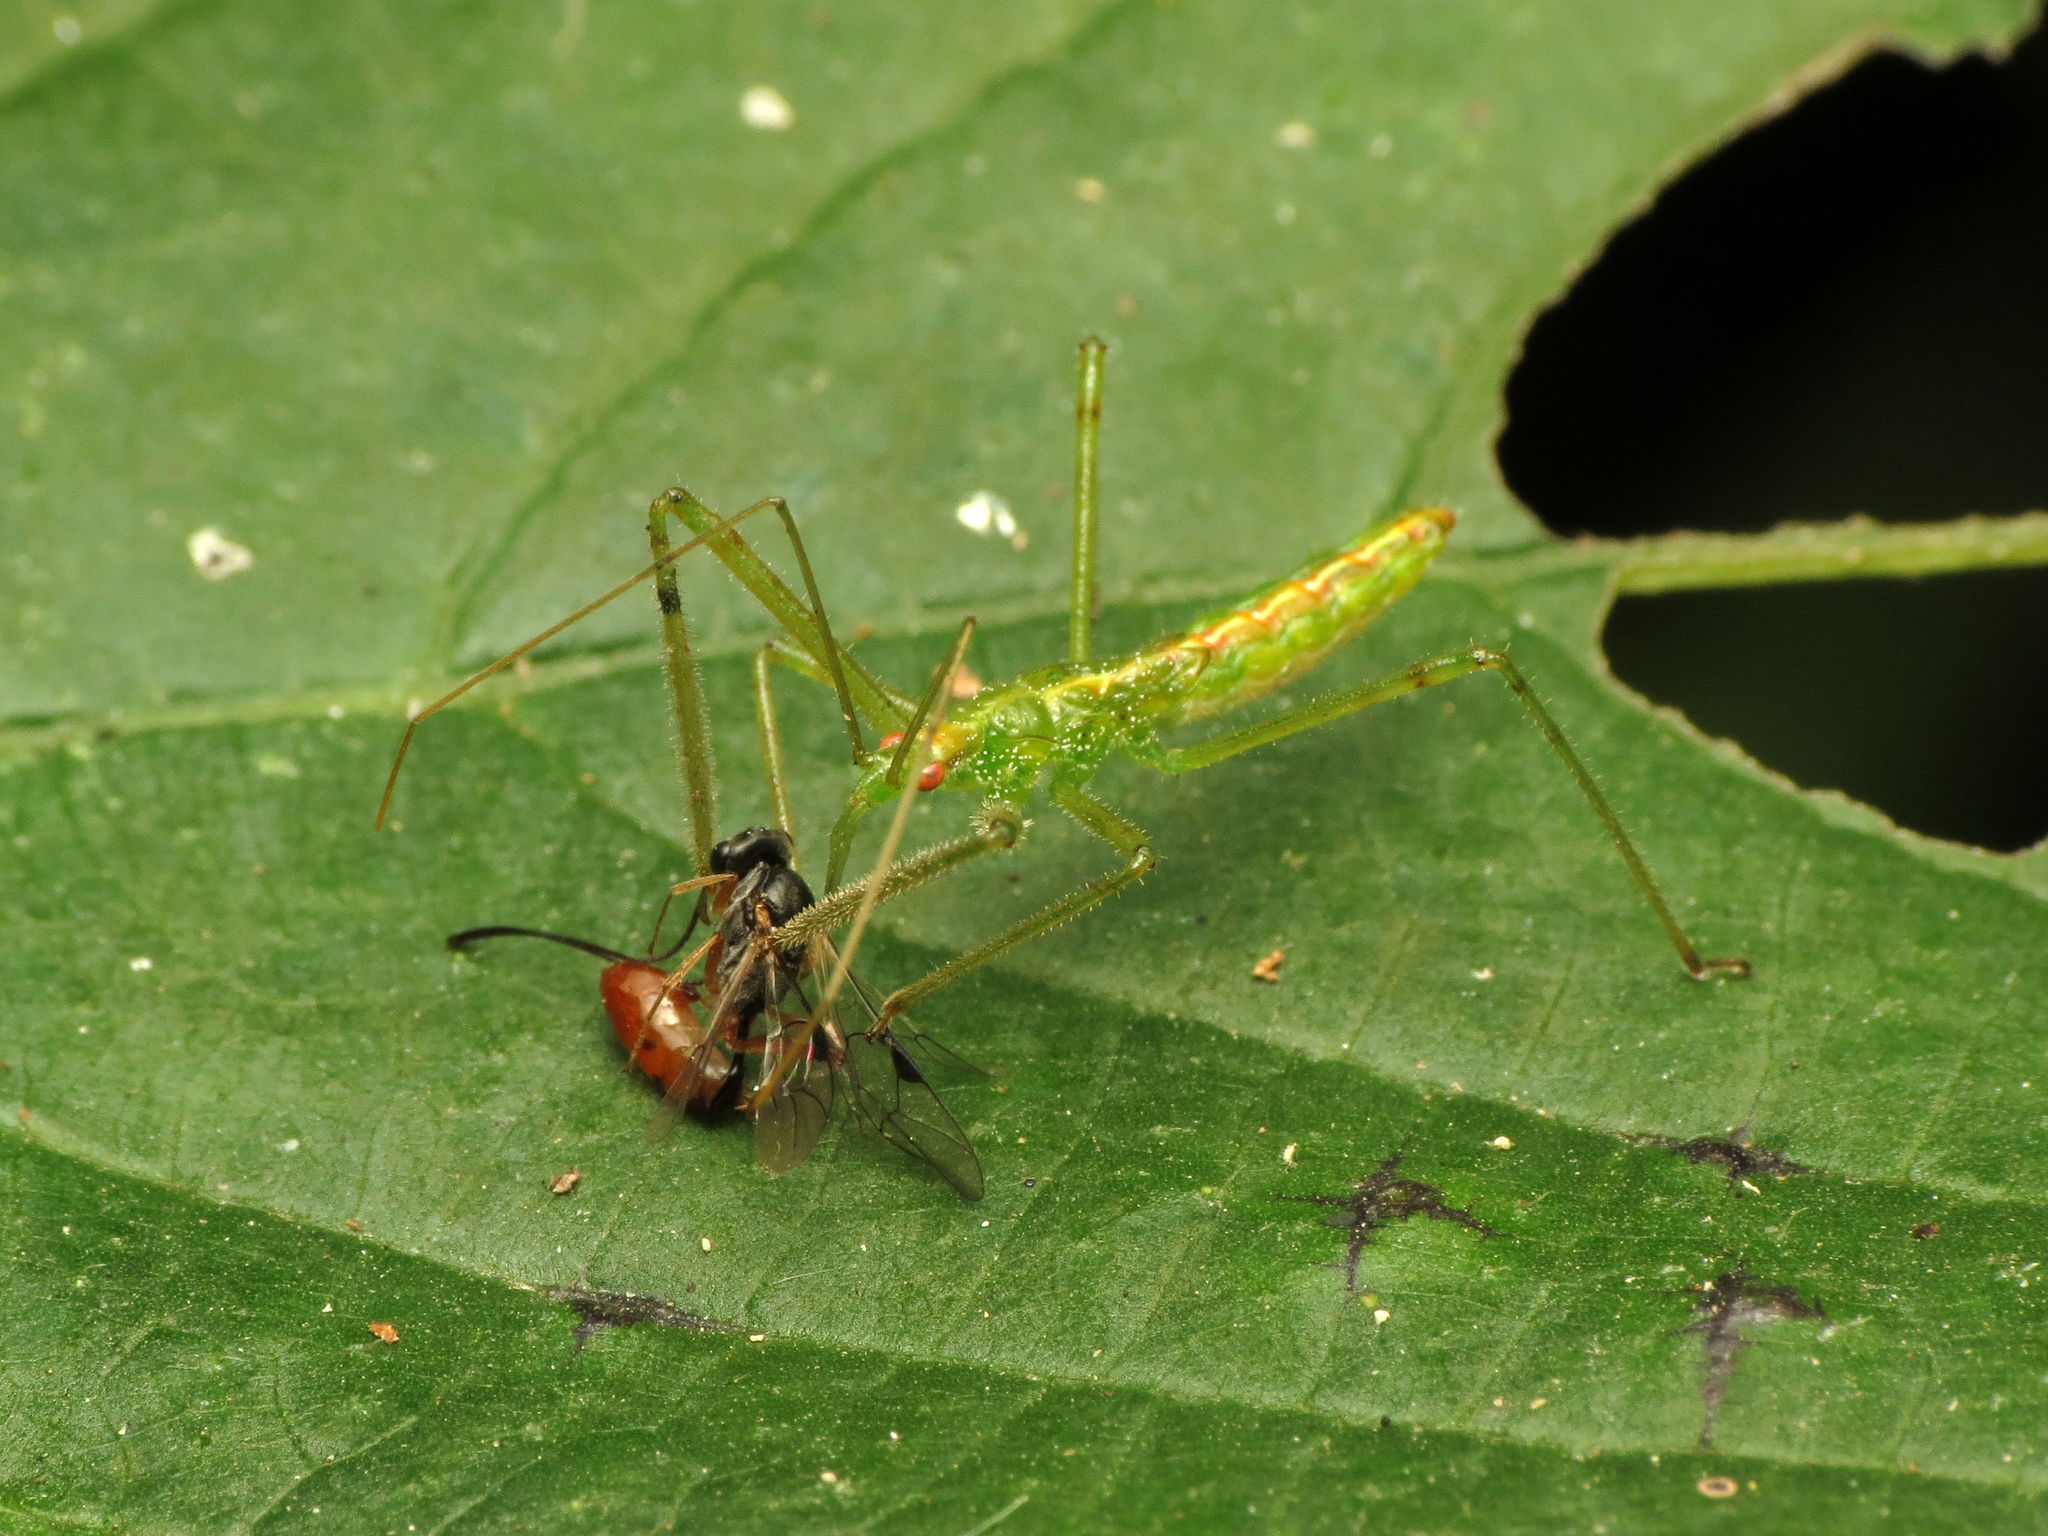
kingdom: Animalia
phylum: Arthropoda
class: Insecta
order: Hemiptera
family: Reduviidae
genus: Zelus
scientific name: Zelus luridus
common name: Pale green assassin bug
